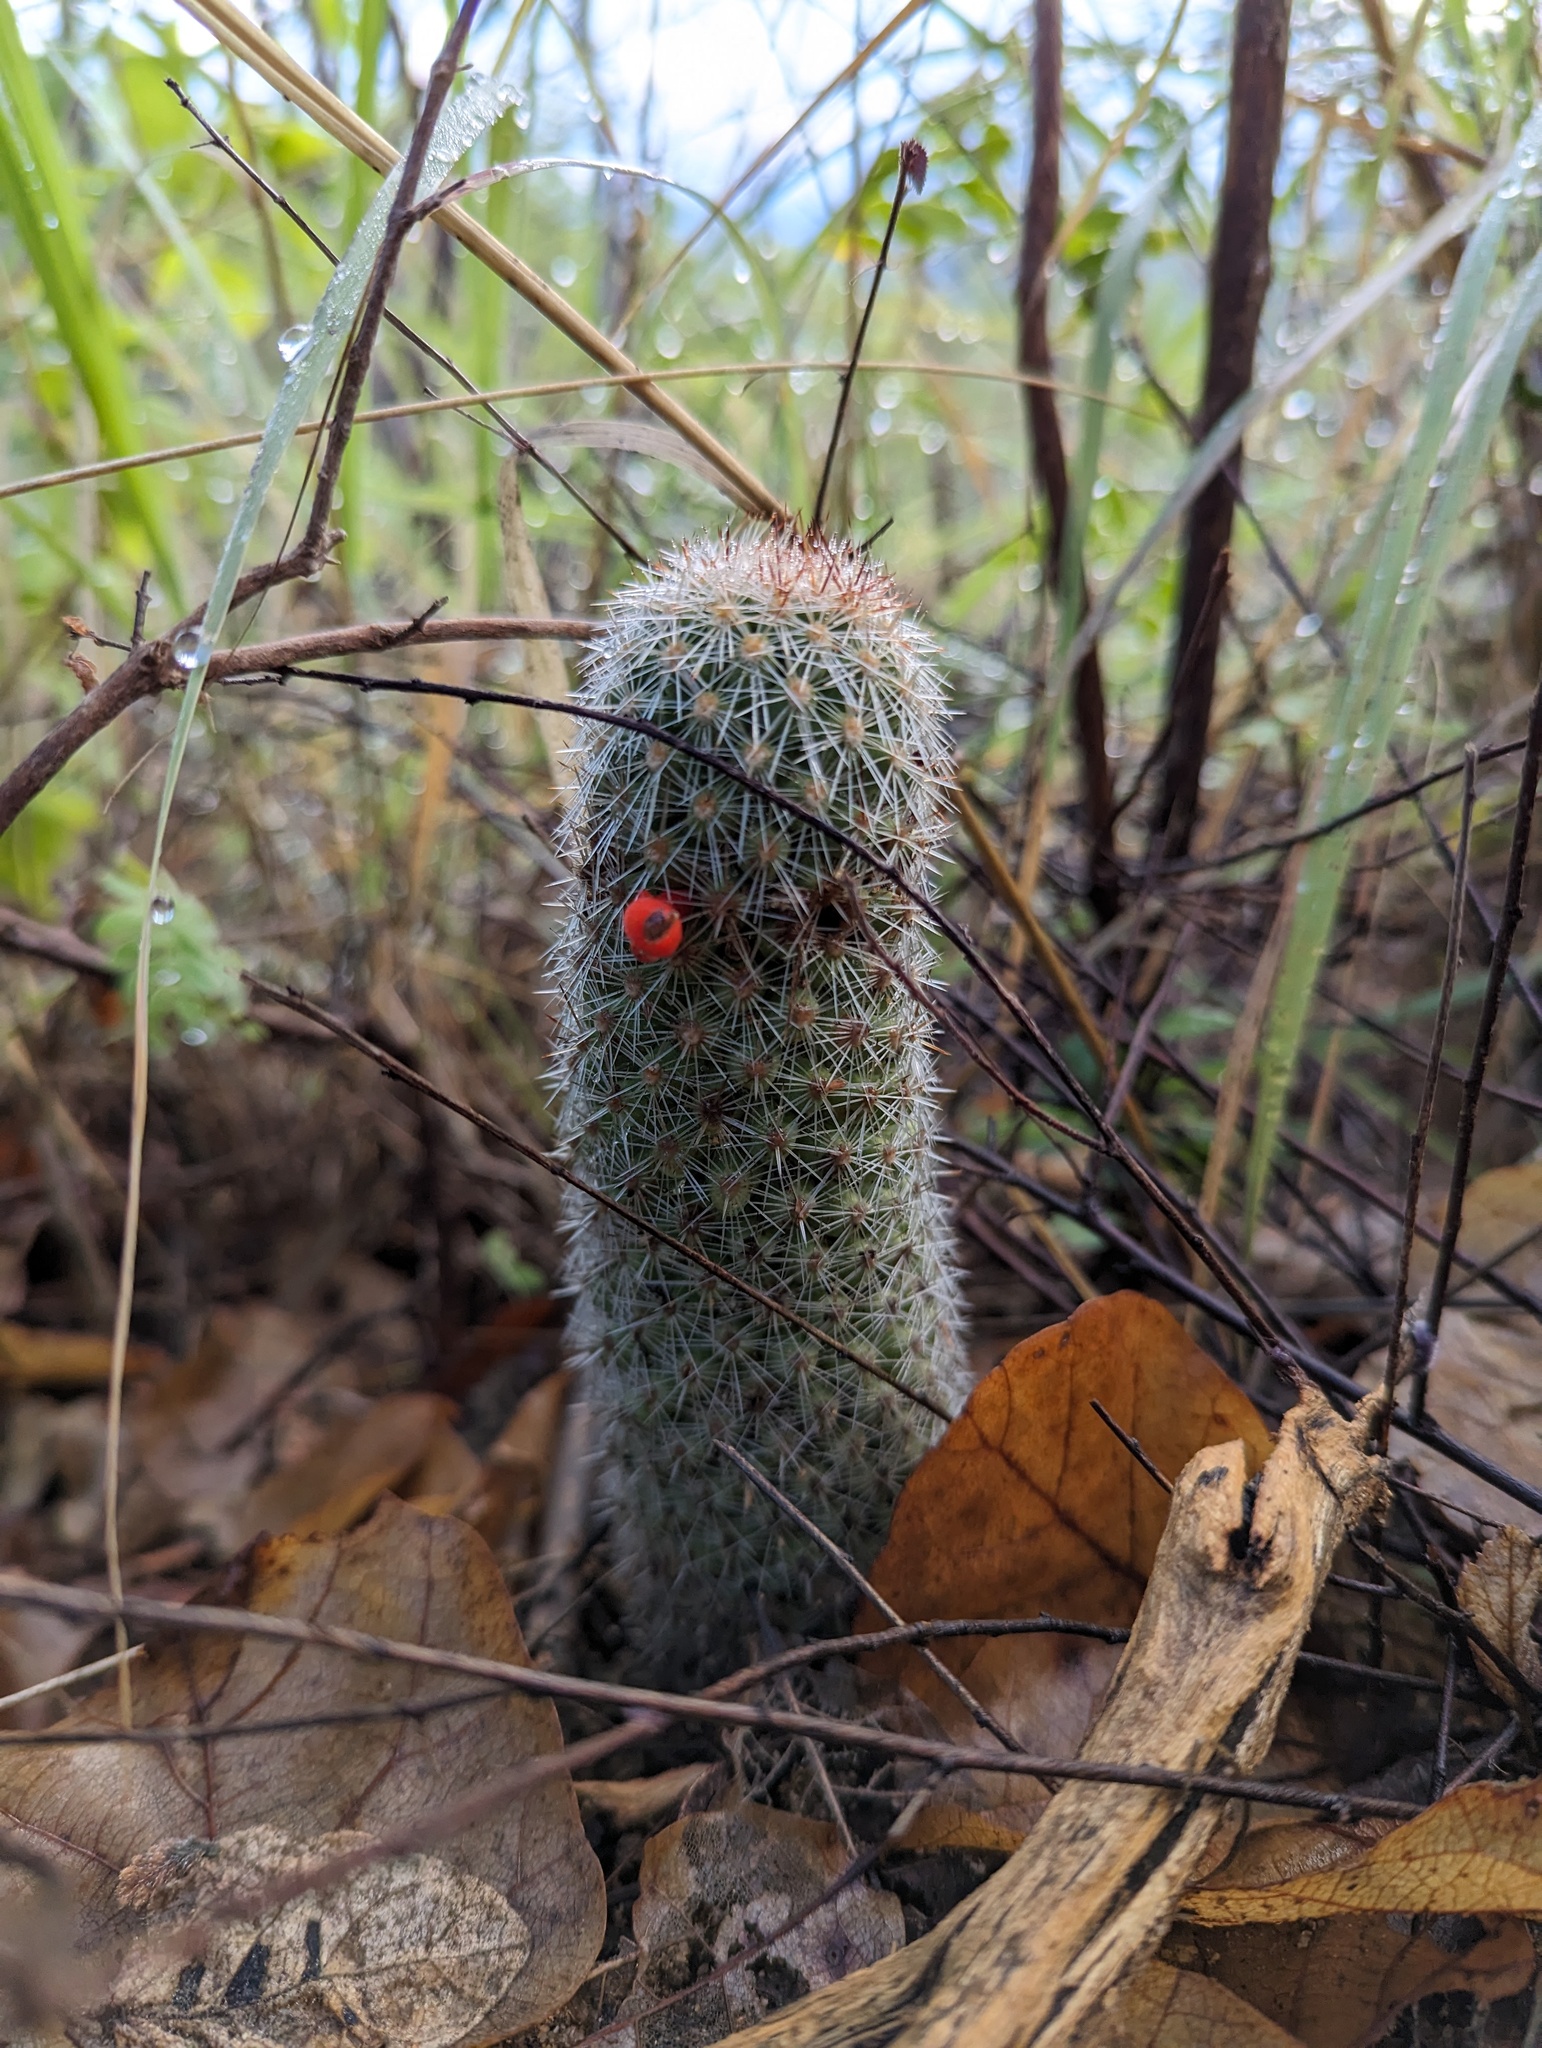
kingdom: Plantae
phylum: Tracheophyta
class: Magnoliopsida
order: Caryophyllales
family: Cactaceae
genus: Cochemiea
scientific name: Cochemiea phitauiana
